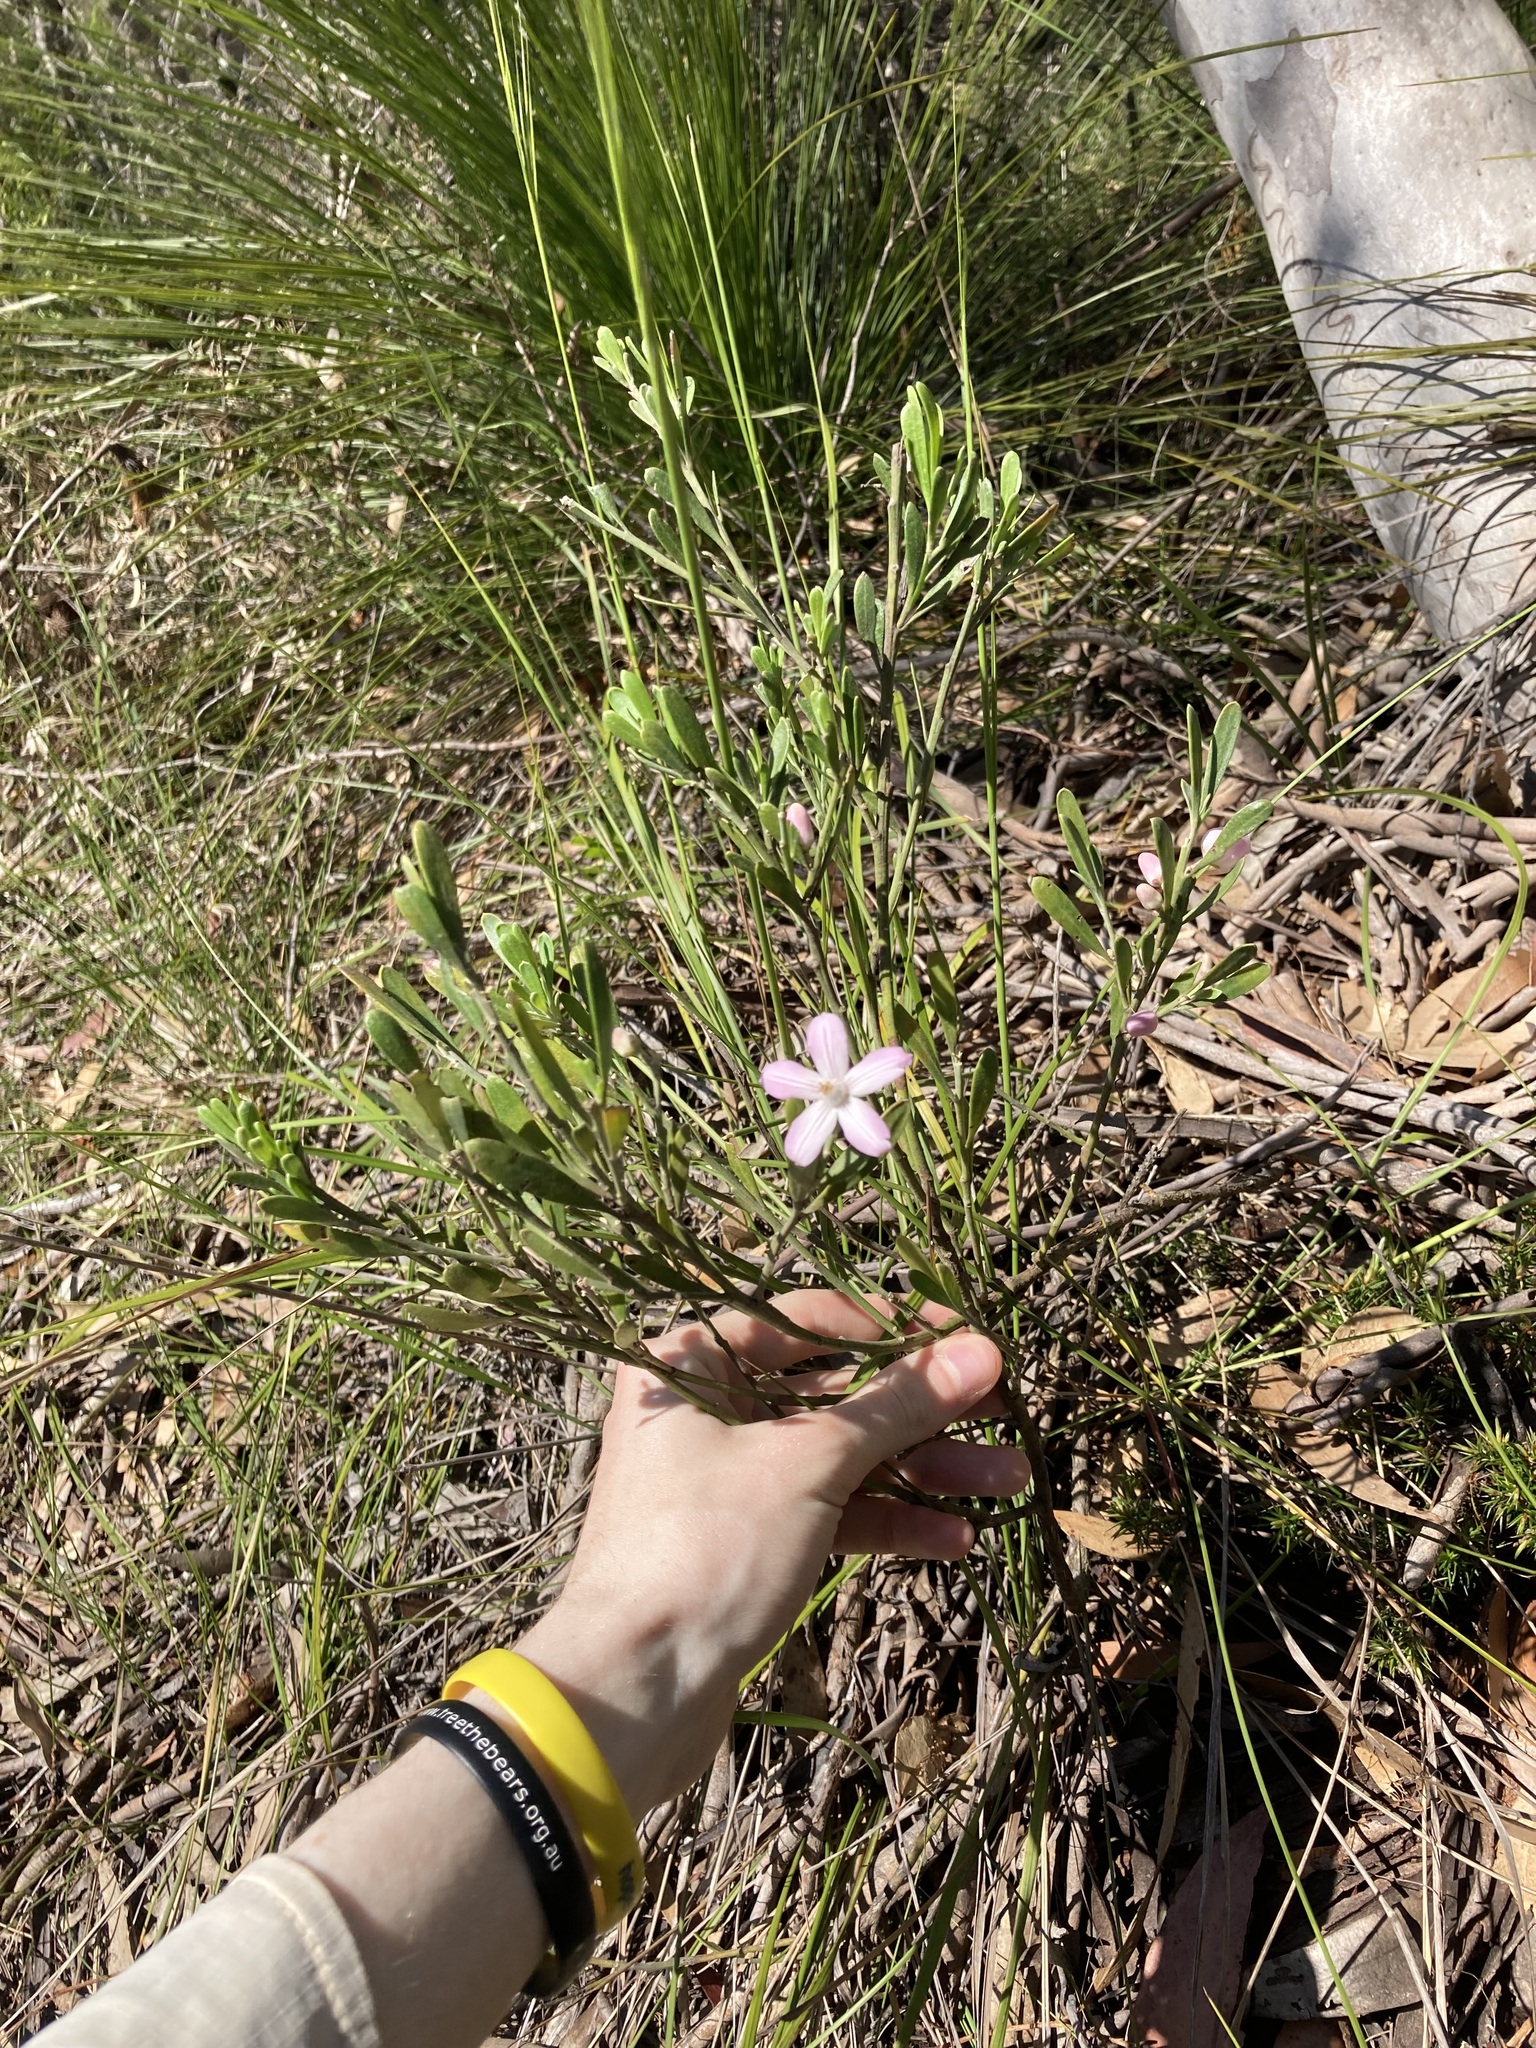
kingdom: Plantae
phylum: Tracheophyta
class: Magnoliopsida
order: Sapindales
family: Rutaceae
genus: Eriostemon
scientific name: Eriostemon australasius
